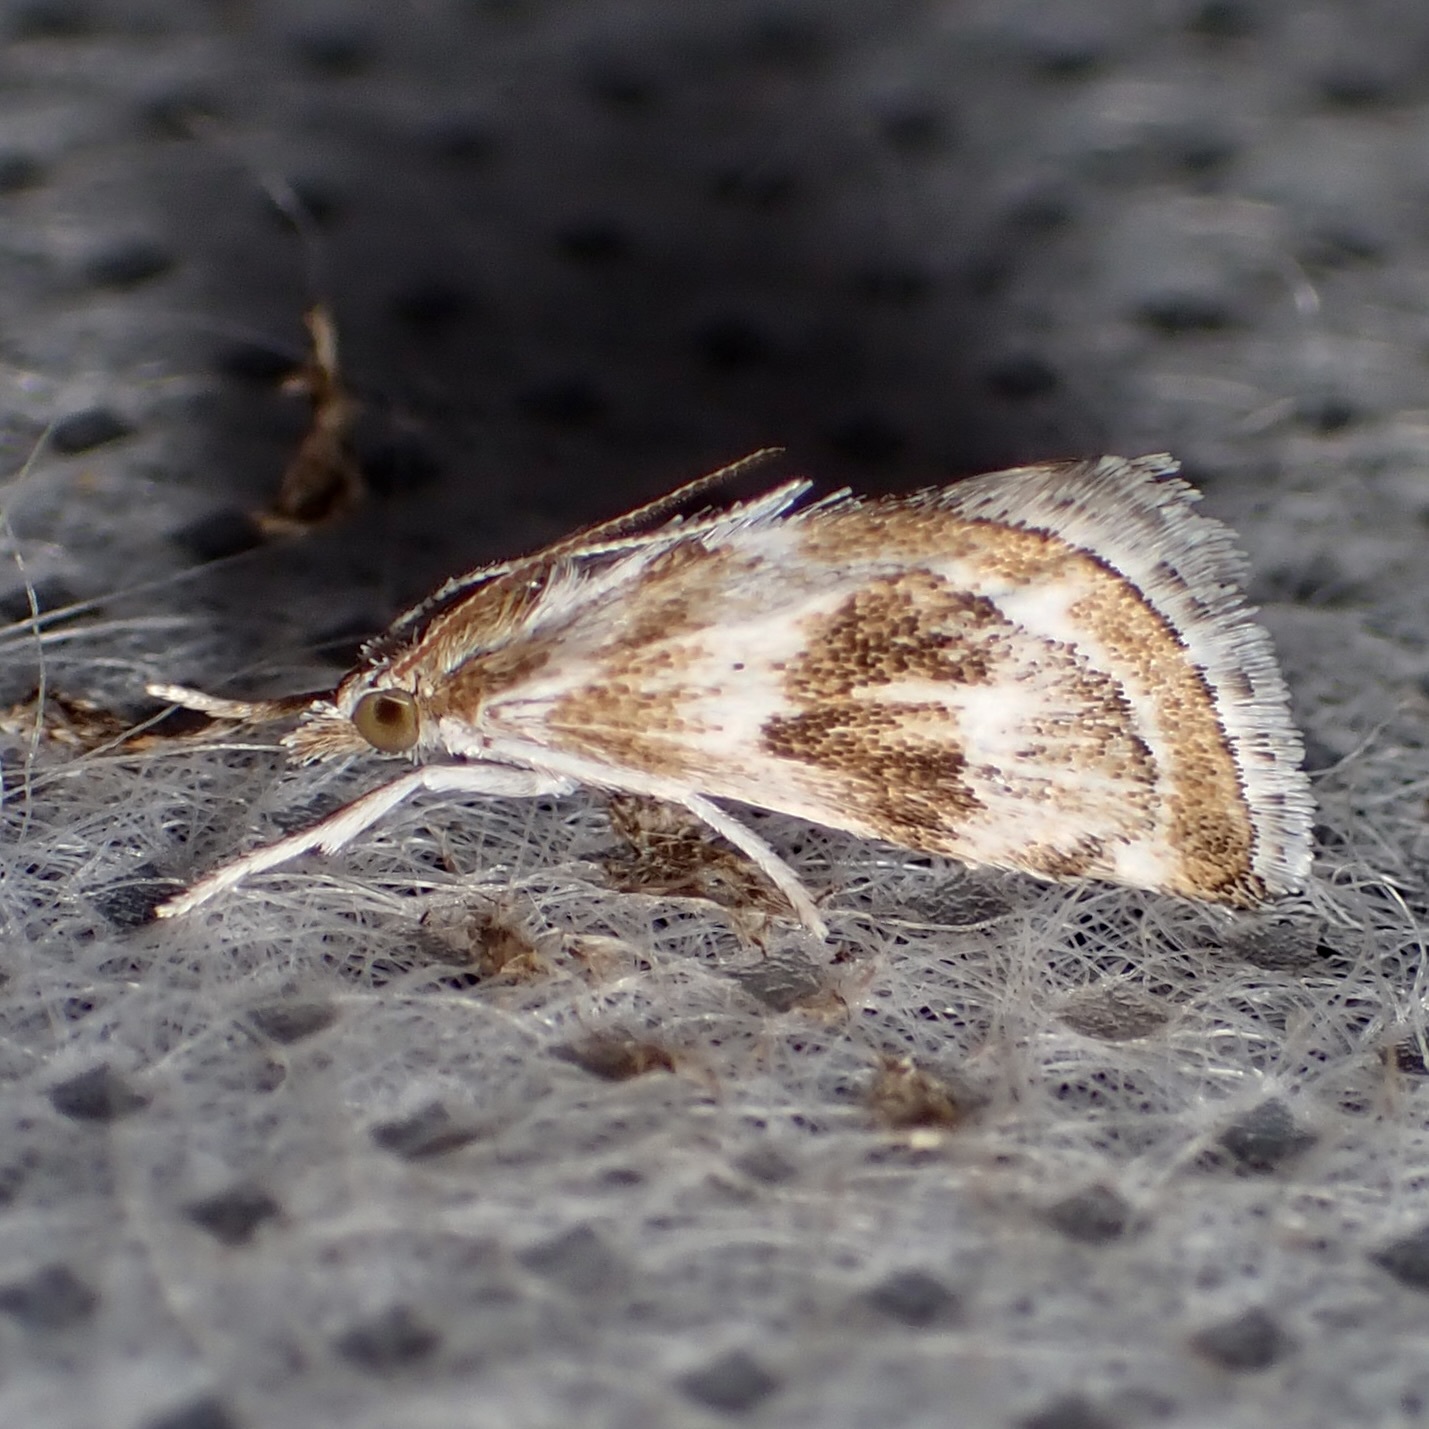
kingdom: Animalia
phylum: Arthropoda
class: Insecta
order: Lepidoptera
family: Crambidae
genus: Frechinia
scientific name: Frechinia helianthiales
